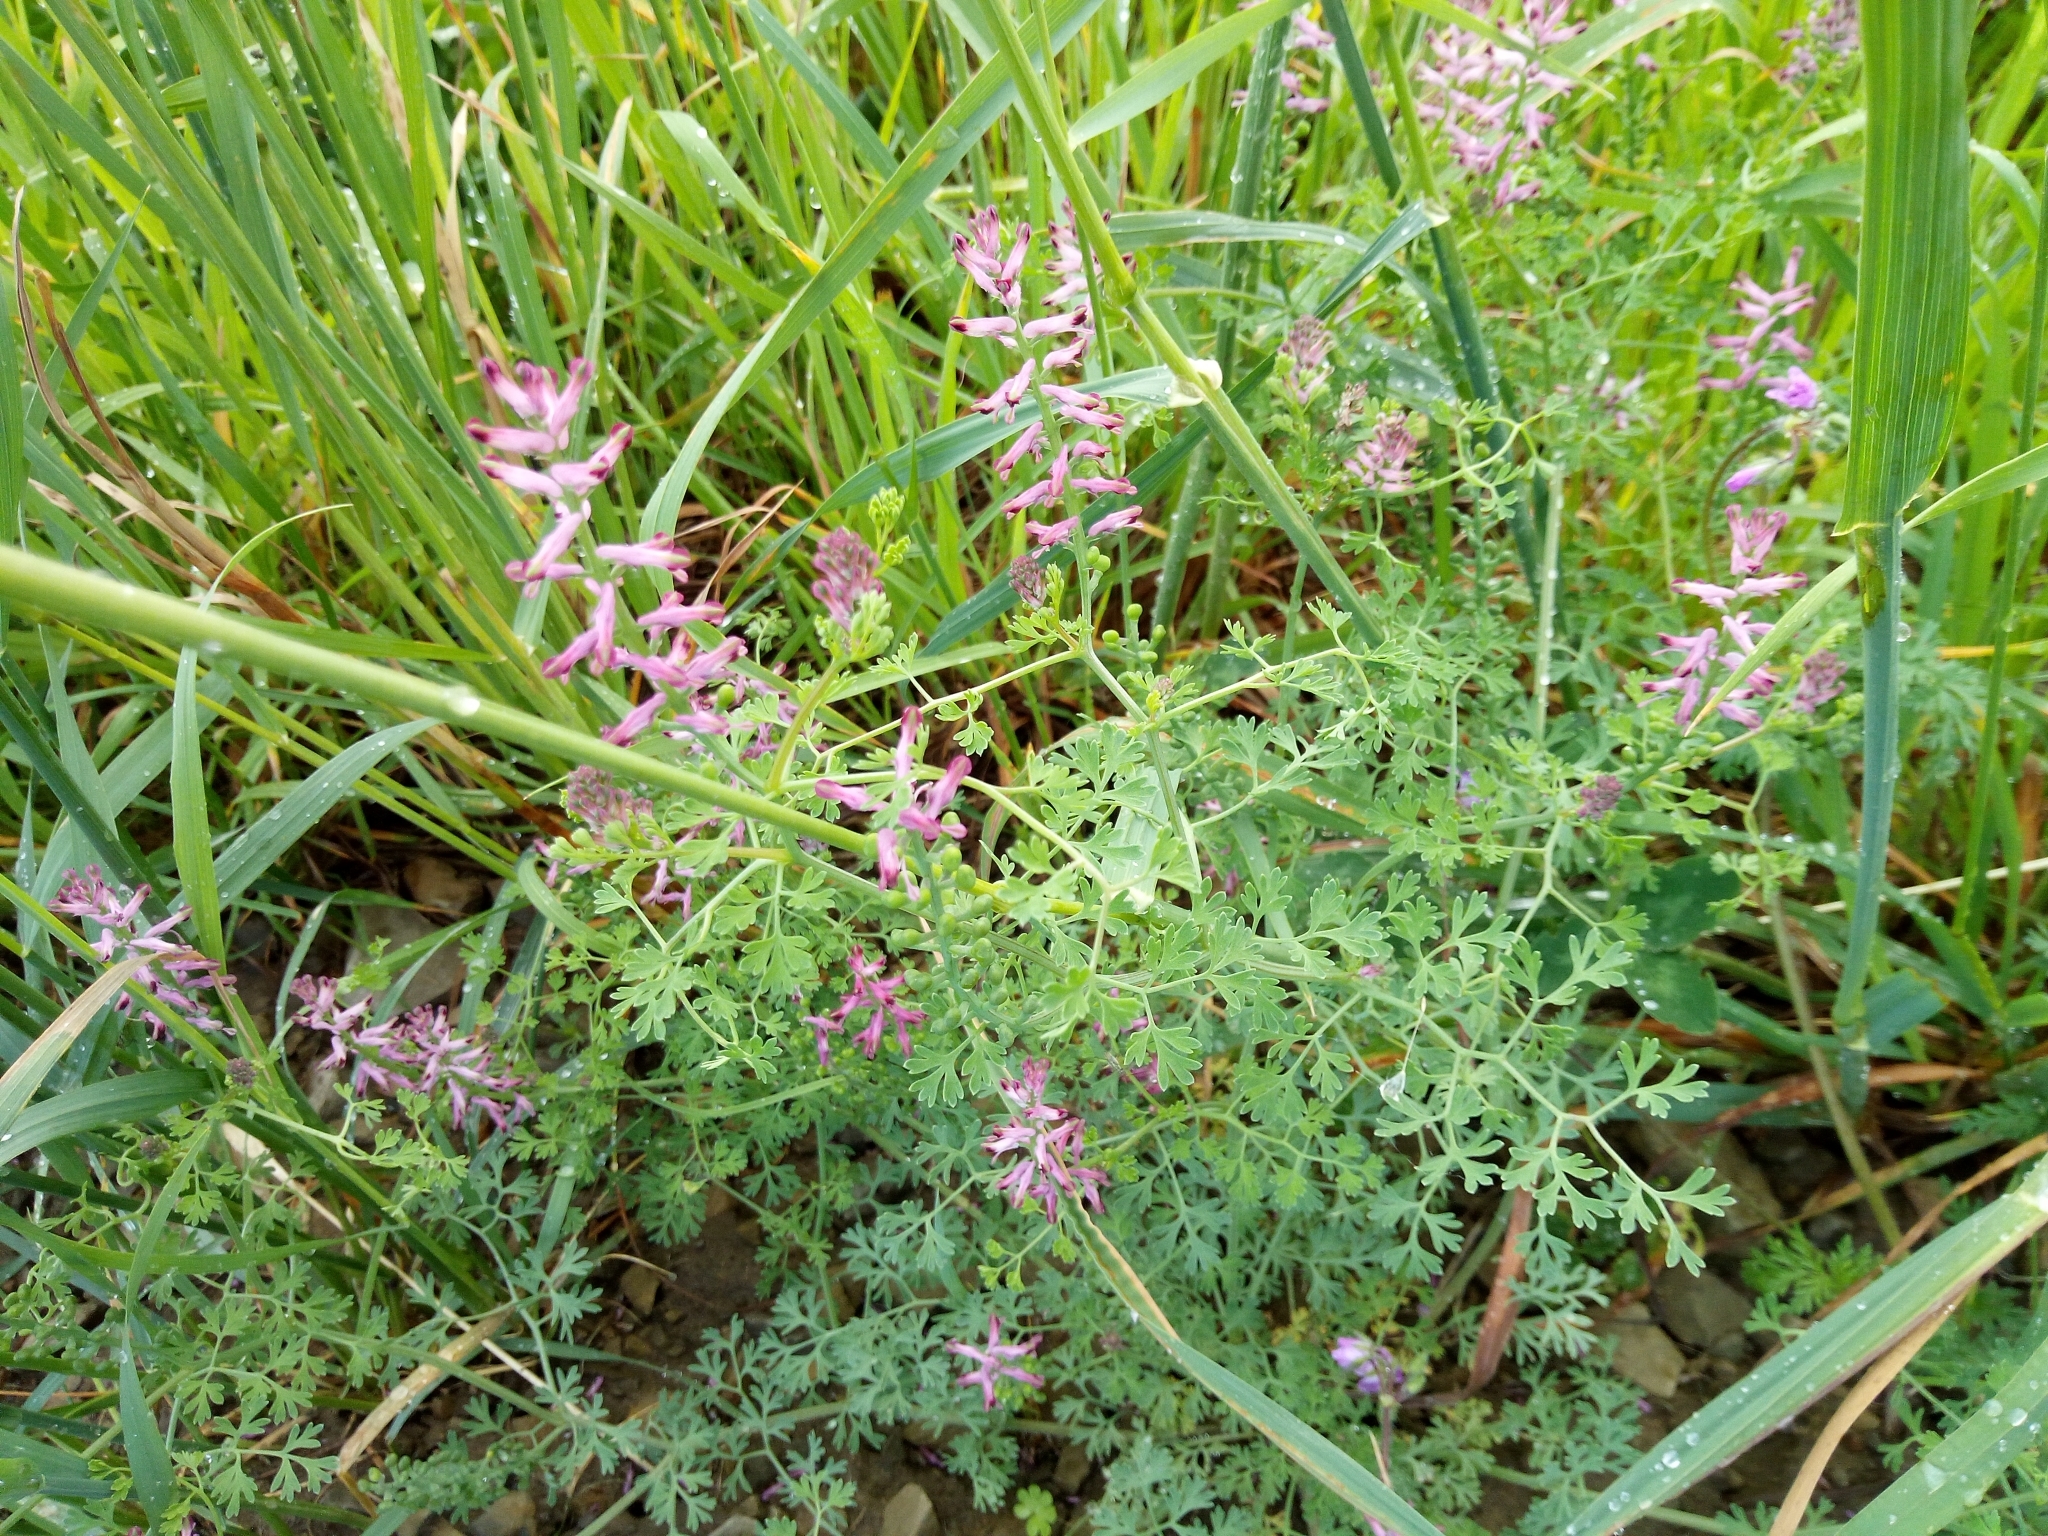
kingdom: Plantae
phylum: Tracheophyta
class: Magnoliopsida
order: Ranunculales
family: Papaveraceae
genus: Fumaria
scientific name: Fumaria officinalis
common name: Common fumitory
